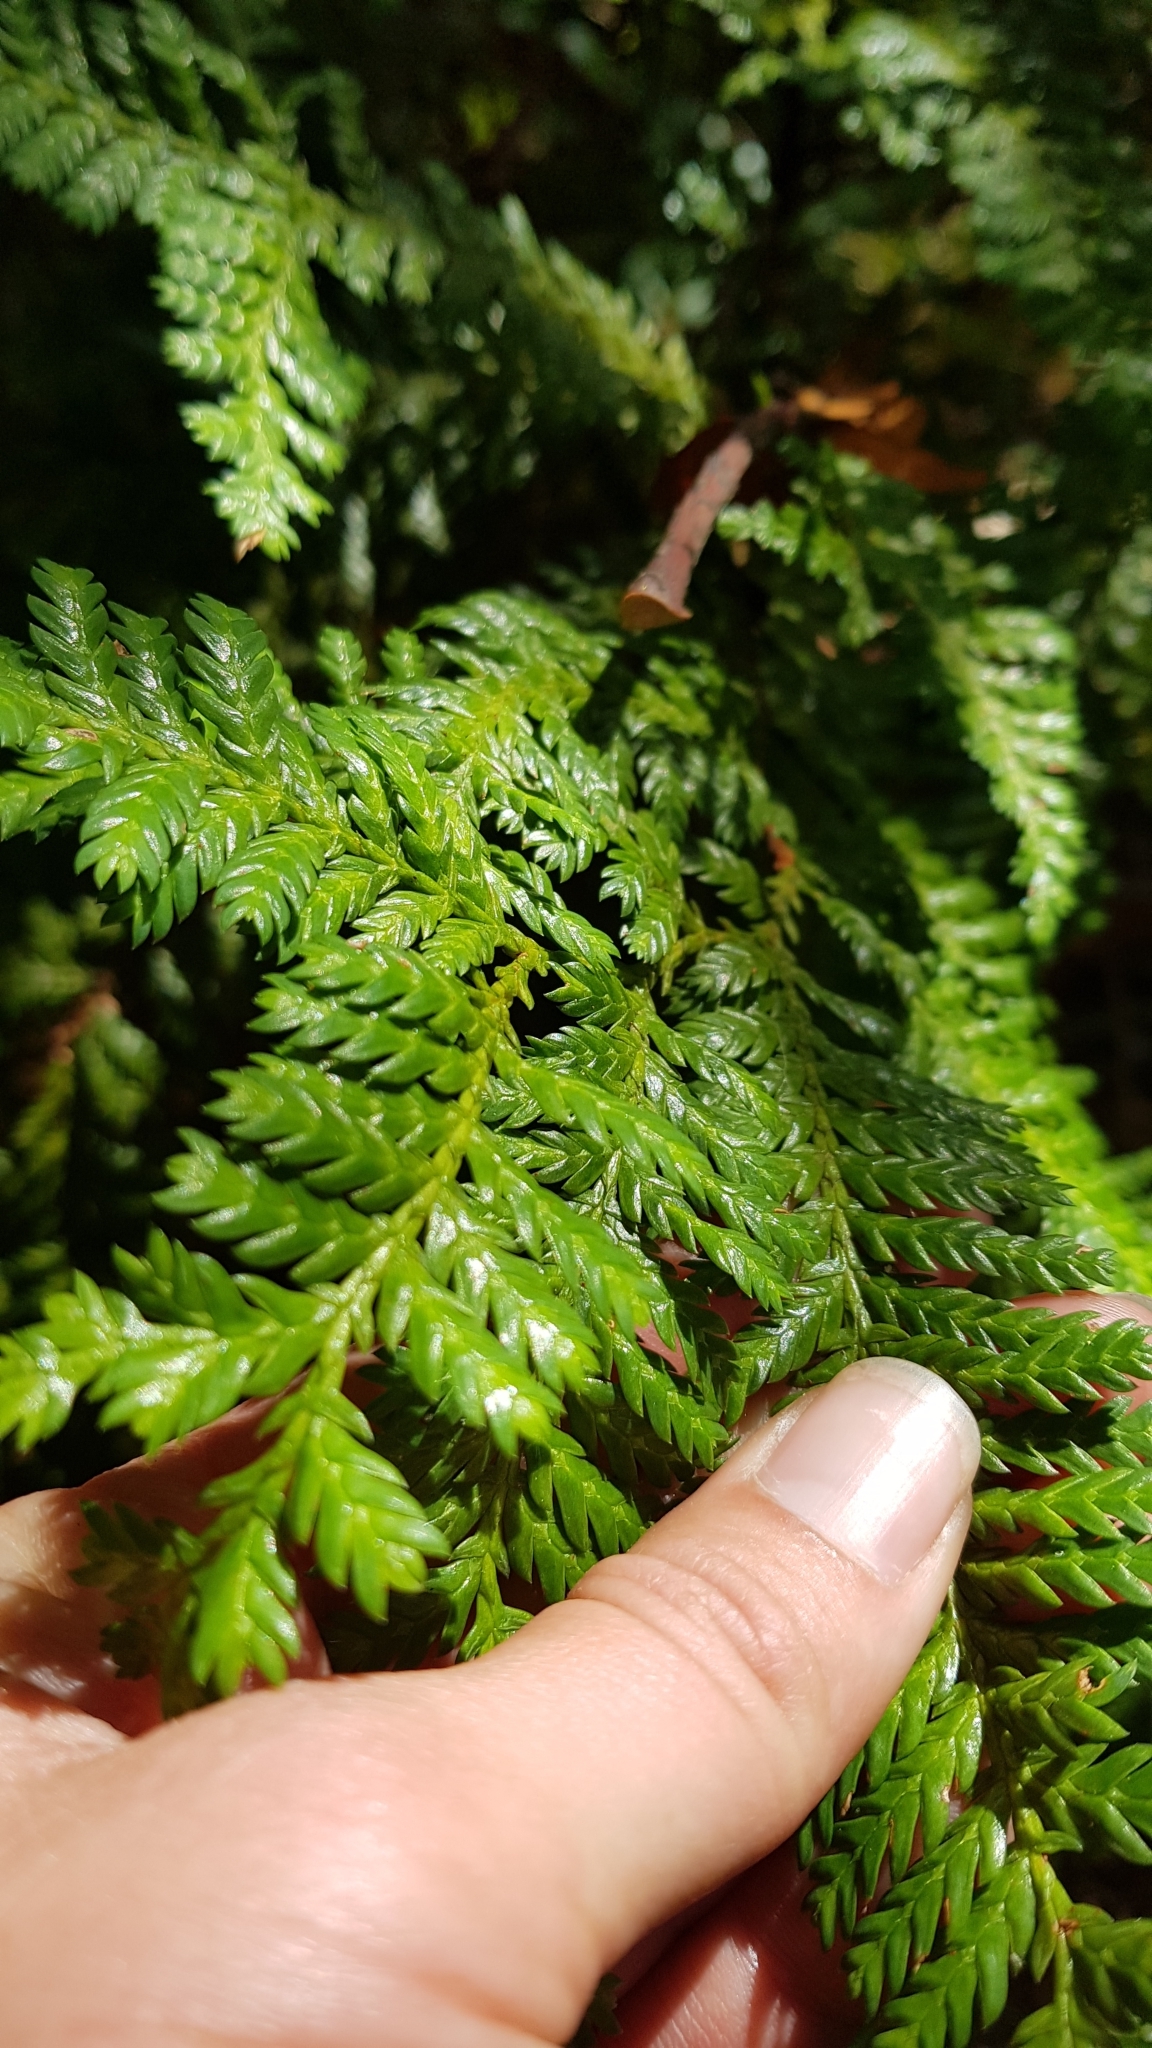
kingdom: Plantae
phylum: Tracheophyta
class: Pinopsida
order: Pinales
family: Cupressaceae
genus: Libocedrus
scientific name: Libocedrus plumosa
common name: New zealand cedar
